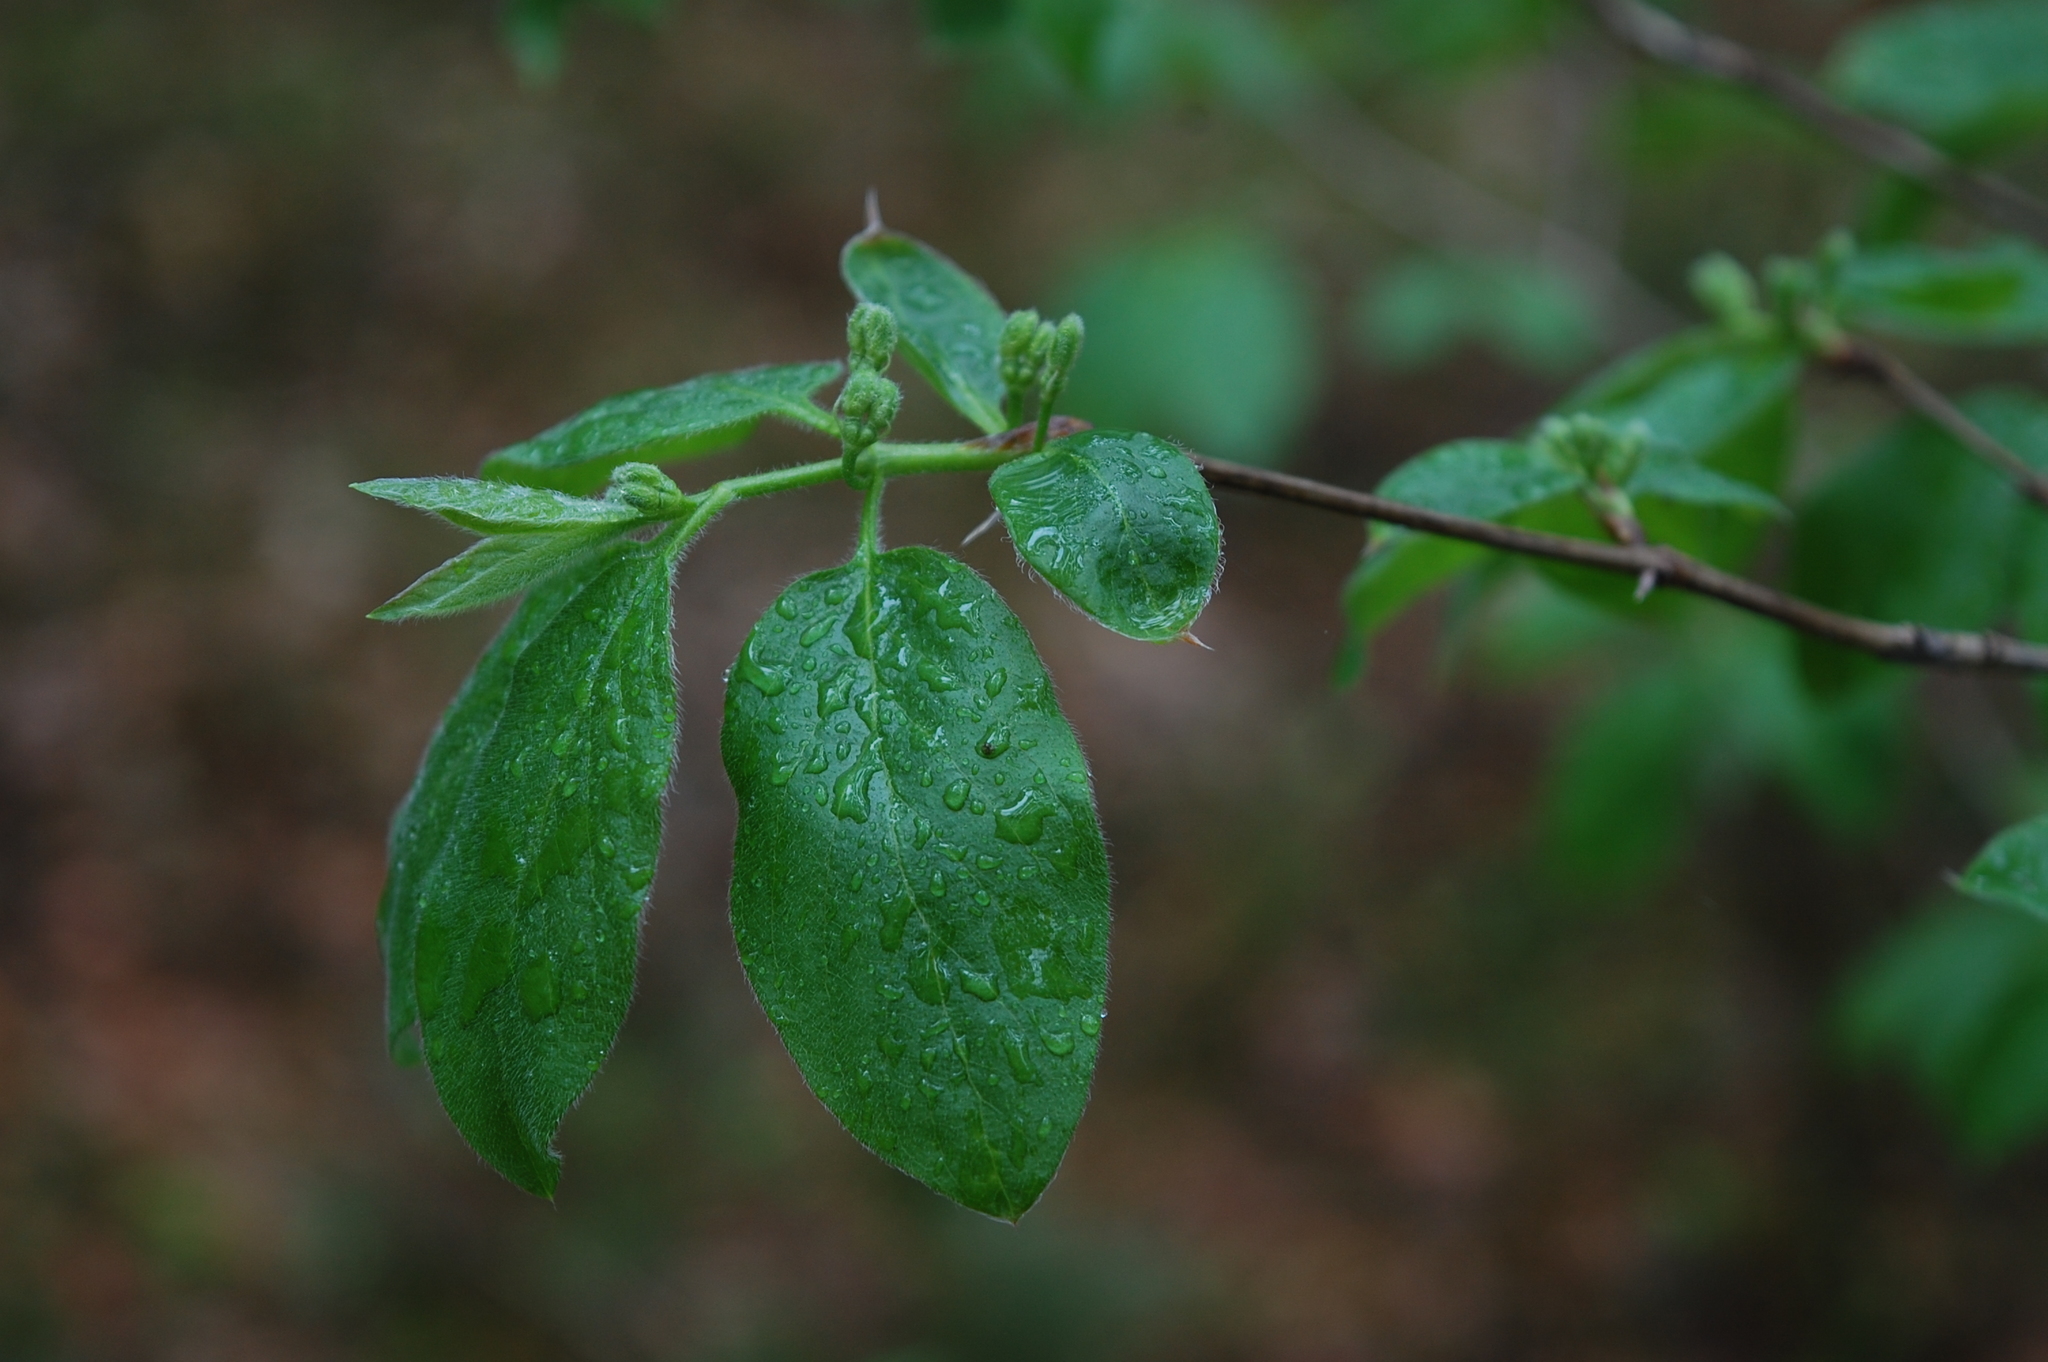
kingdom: Plantae
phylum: Tracheophyta
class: Magnoliopsida
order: Dipsacales
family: Caprifoliaceae
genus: Lonicera
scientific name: Lonicera xylosteum
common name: Fly honeysuckle
